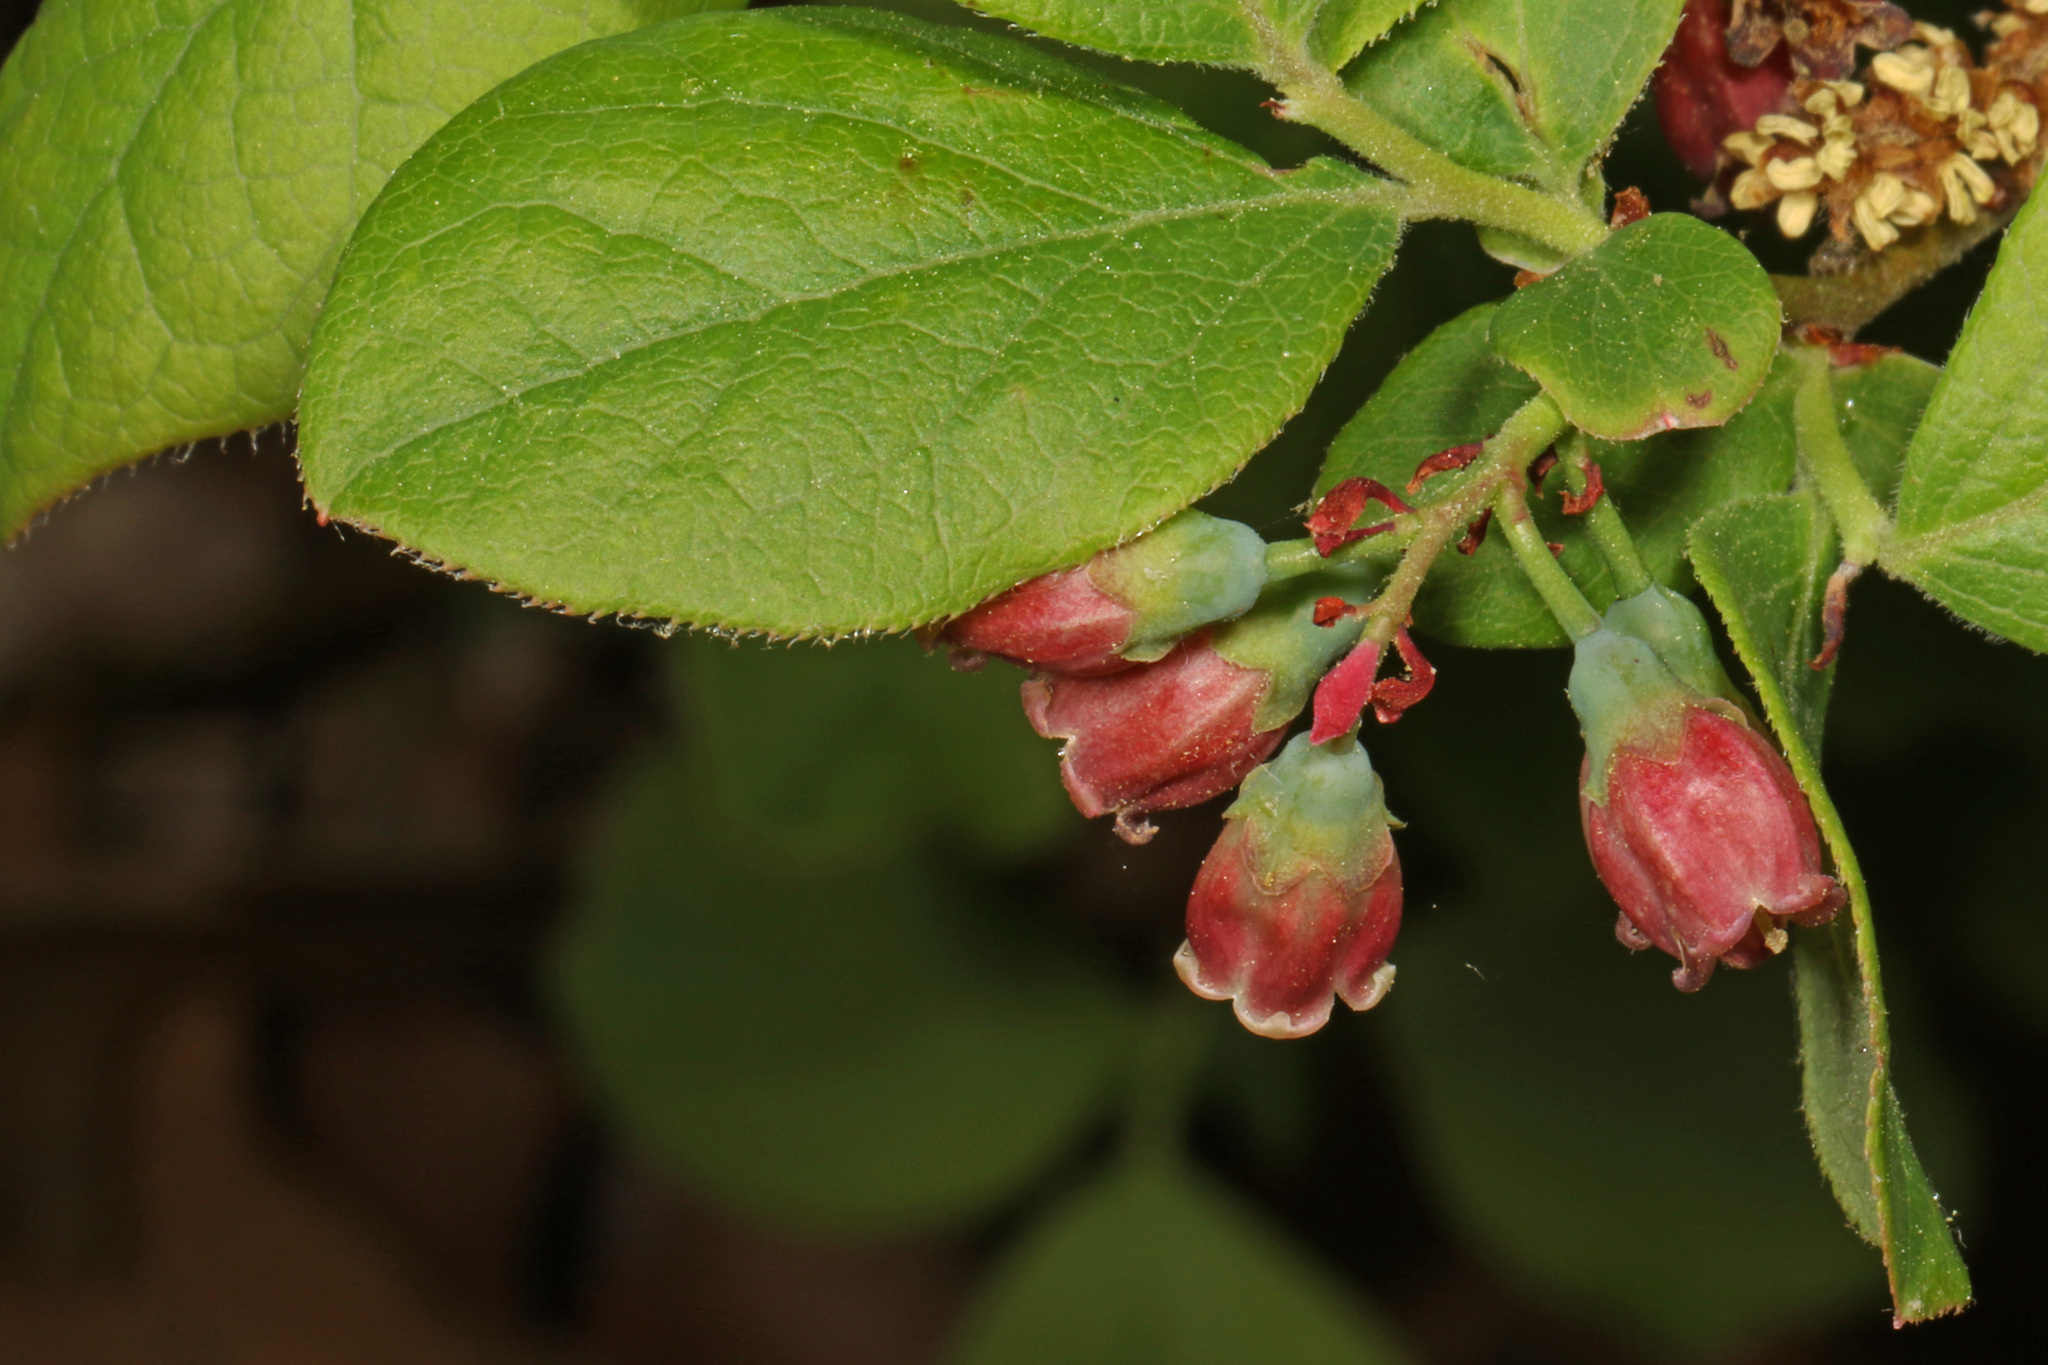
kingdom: Plantae
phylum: Tracheophyta
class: Magnoliopsida
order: Ericales
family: Ericaceae
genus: Gaylussacia
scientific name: Gaylussacia baccata
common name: Black huckleberry
